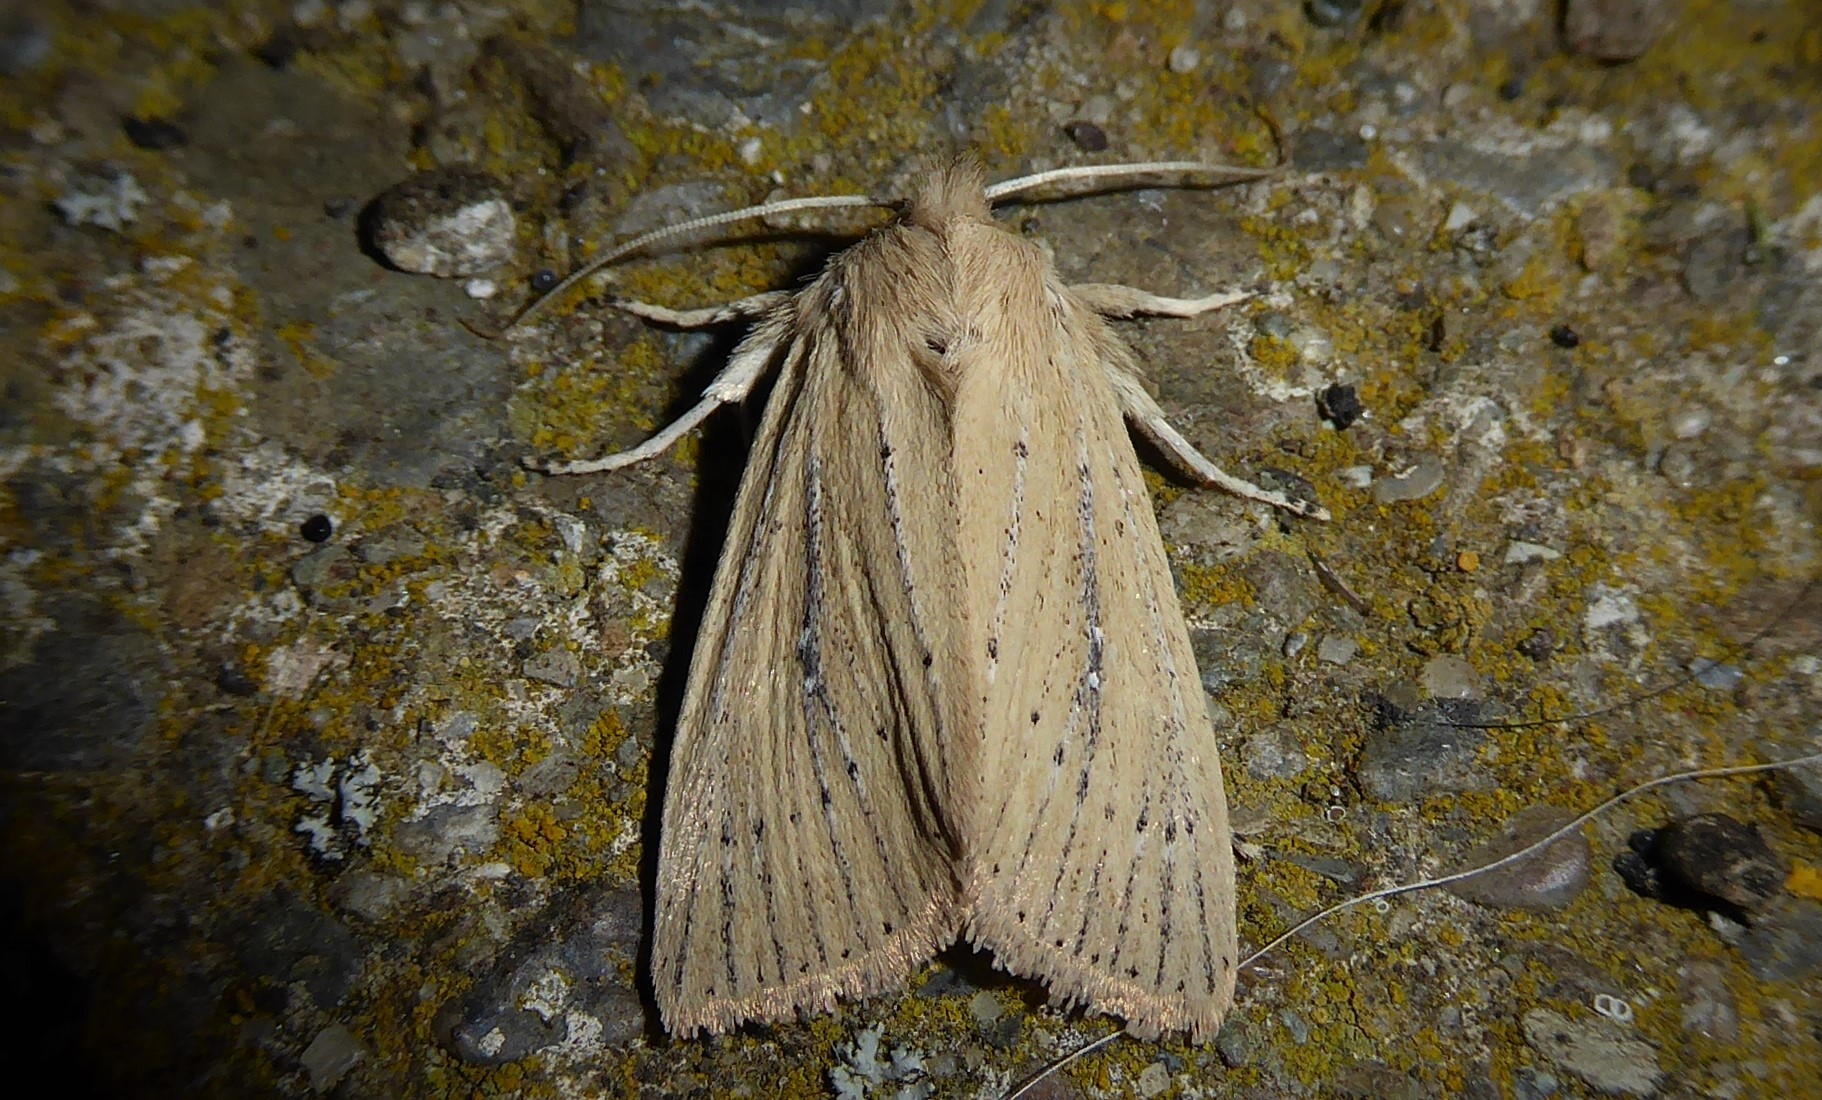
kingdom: Animalia
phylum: Arthropoda
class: Insecta
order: Lepidoptera
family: Noctuidae
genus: Ichneutica
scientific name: Ichneutica
